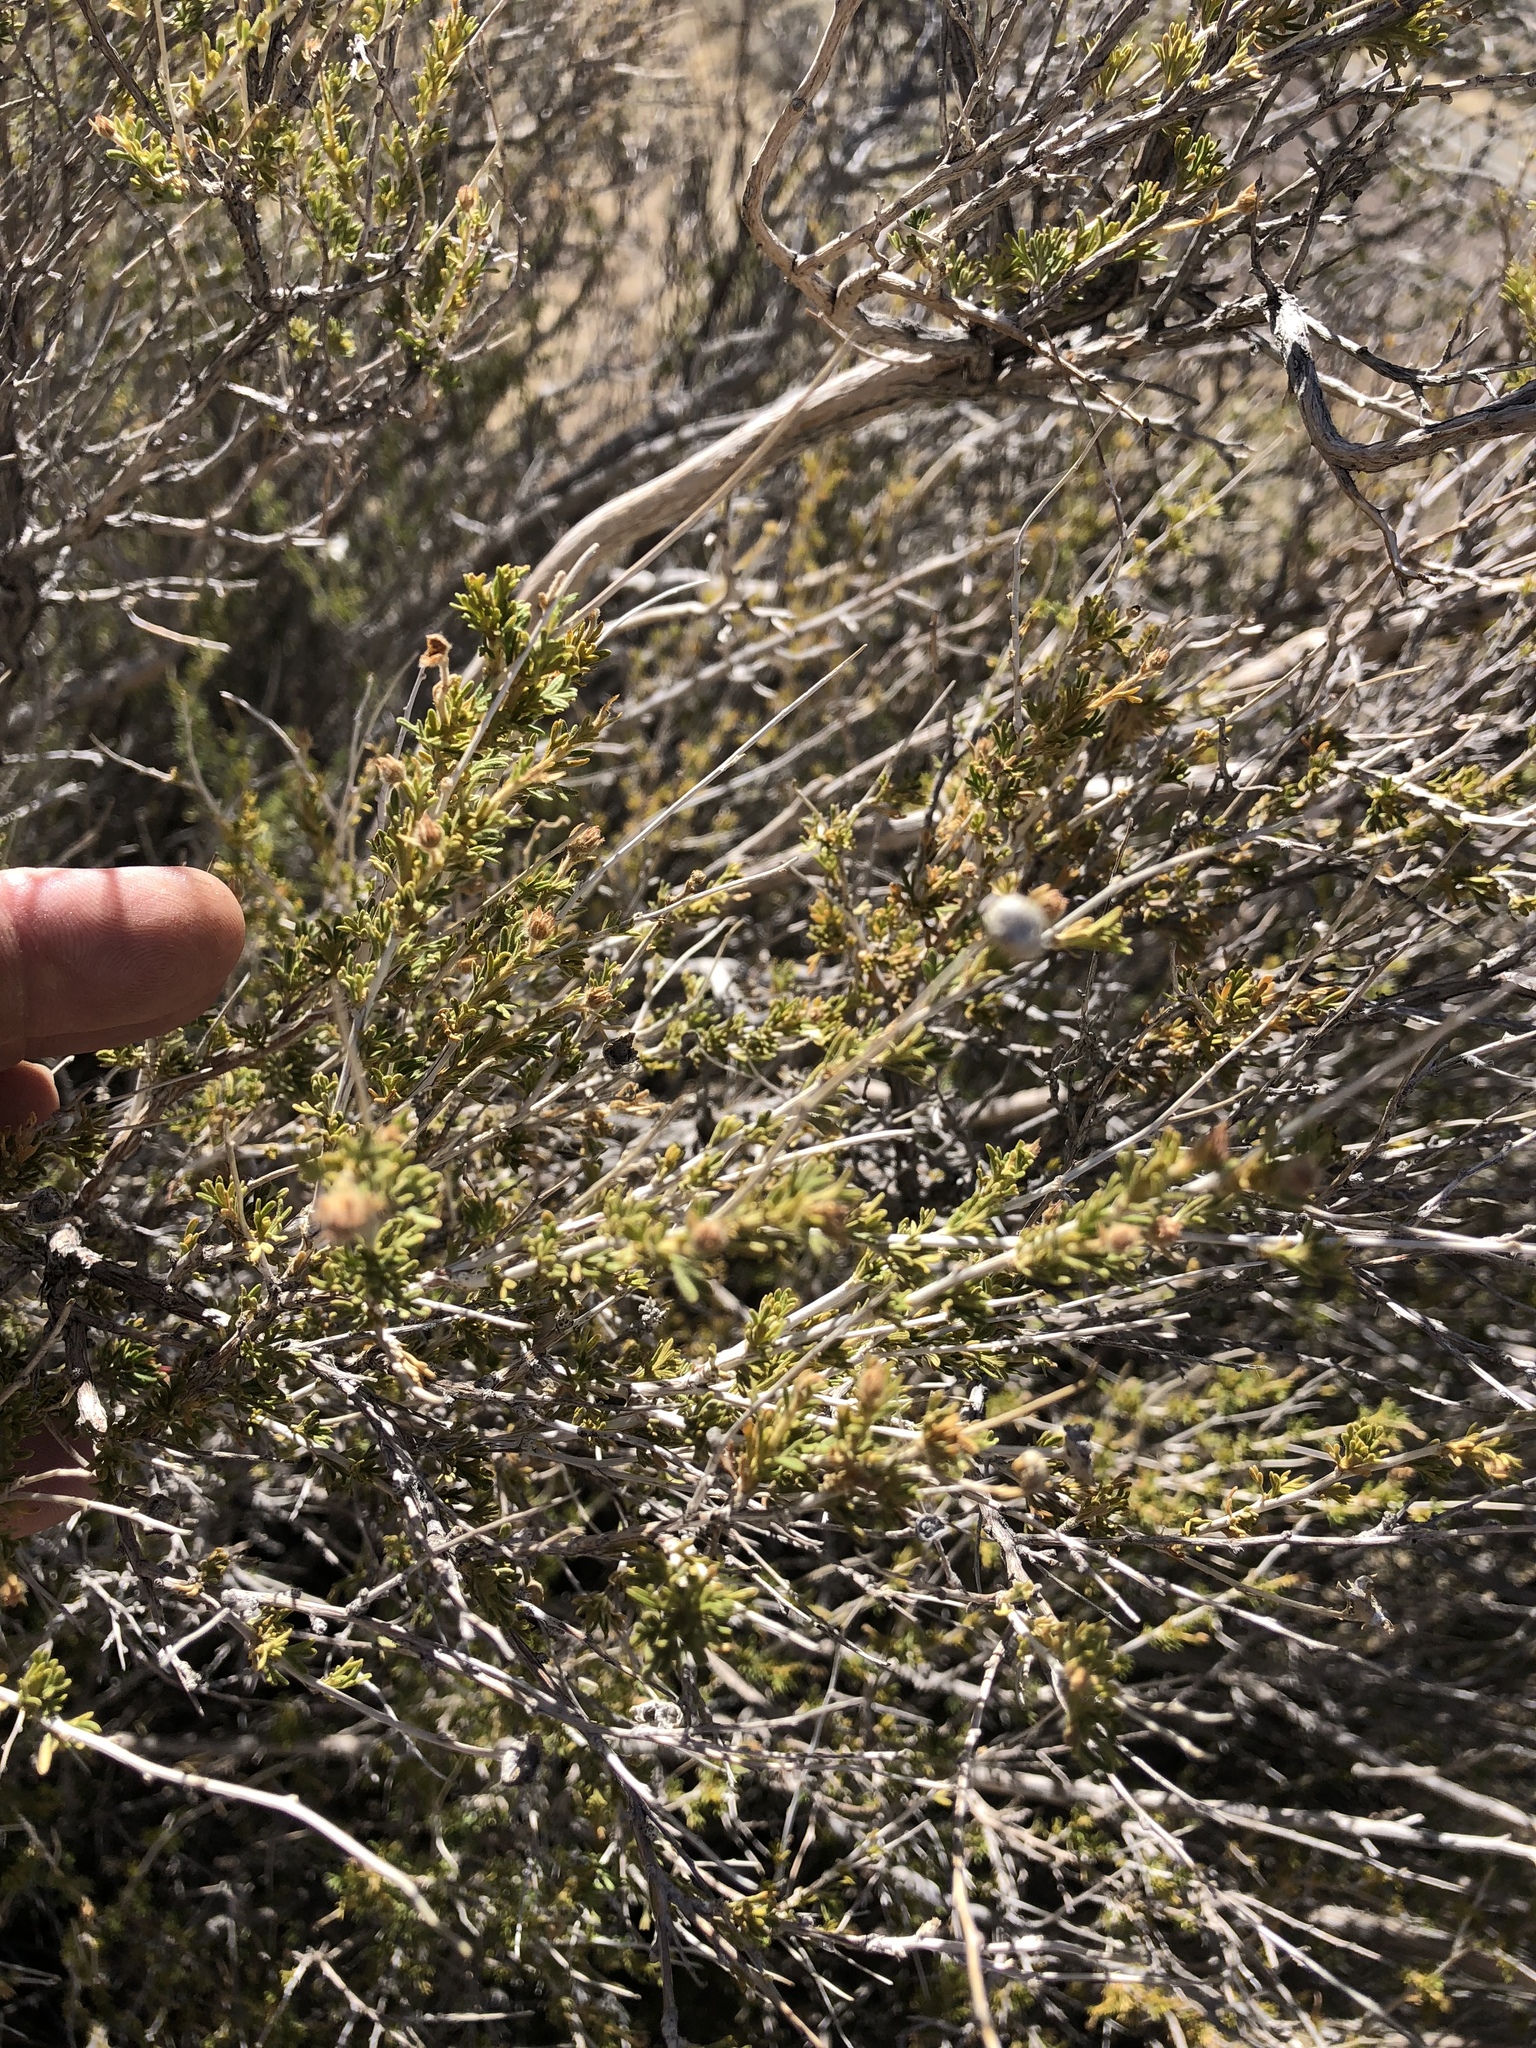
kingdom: Plantae
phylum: Tracheophyta
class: Magnoliopsida
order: Rosales
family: Rosaceae
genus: Fallugia
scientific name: Fallugia paradoxa
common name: Apache-plume
